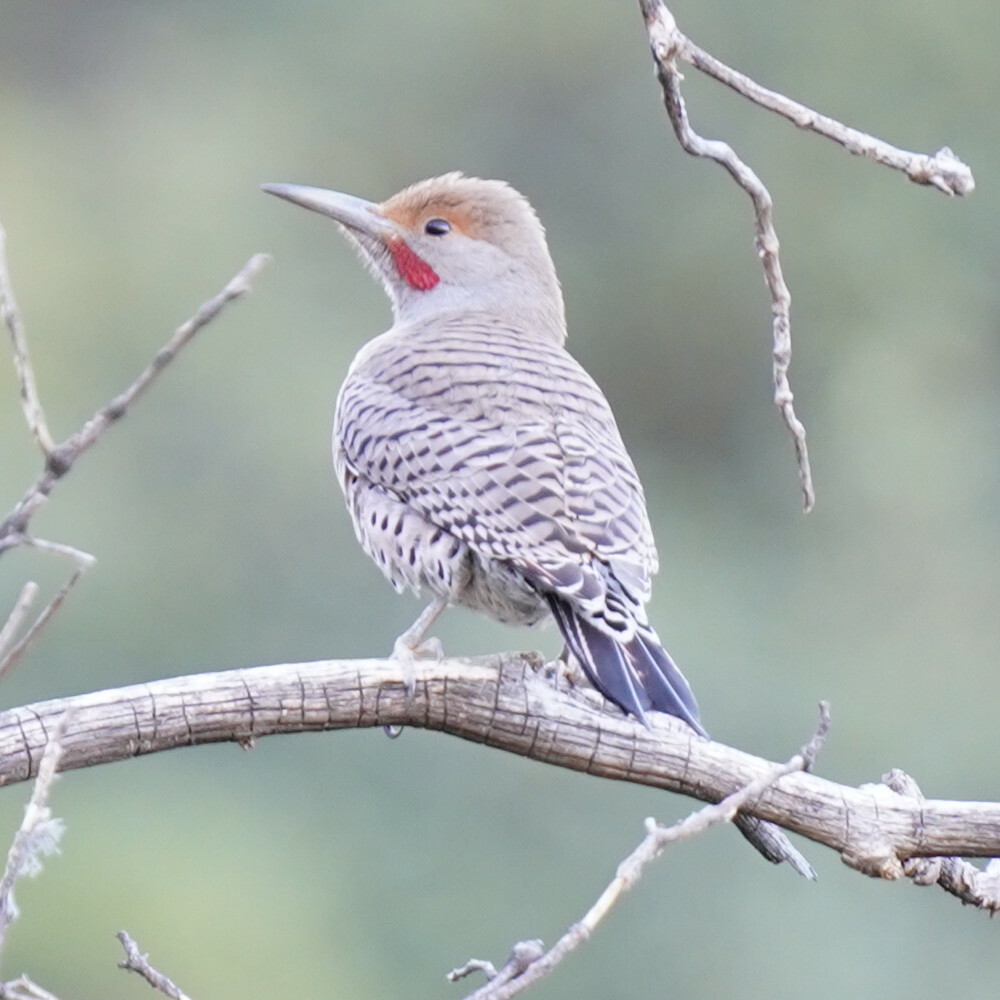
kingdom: Animalia
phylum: Chordata
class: Aves
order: Piciformes
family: Picidae
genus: Colaptes
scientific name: Colaptes auratus
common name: Northern flicker
